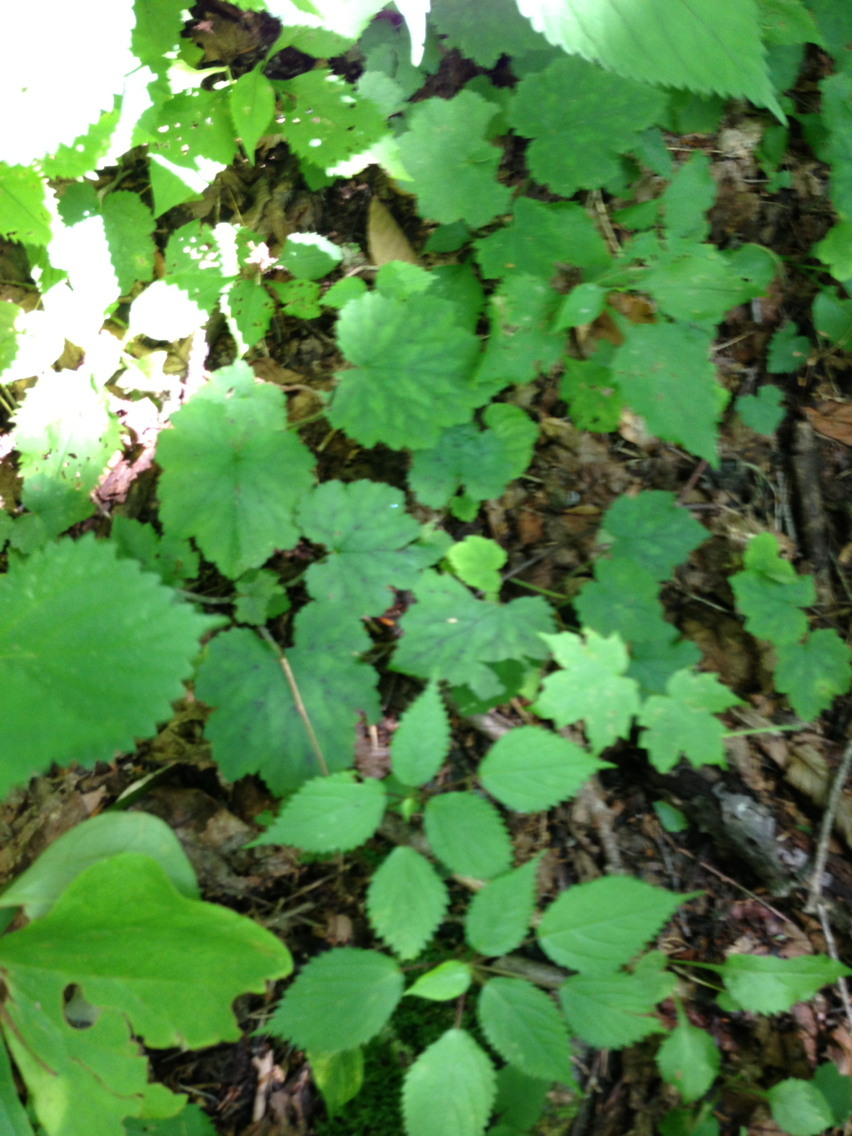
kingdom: Plantae
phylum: Tracheophyta
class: Magnoliopsida
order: Saxifragales
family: Saxifragaceae
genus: Tiarella
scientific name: Tiarella stolonifera
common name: Stoloniferous foamflower
